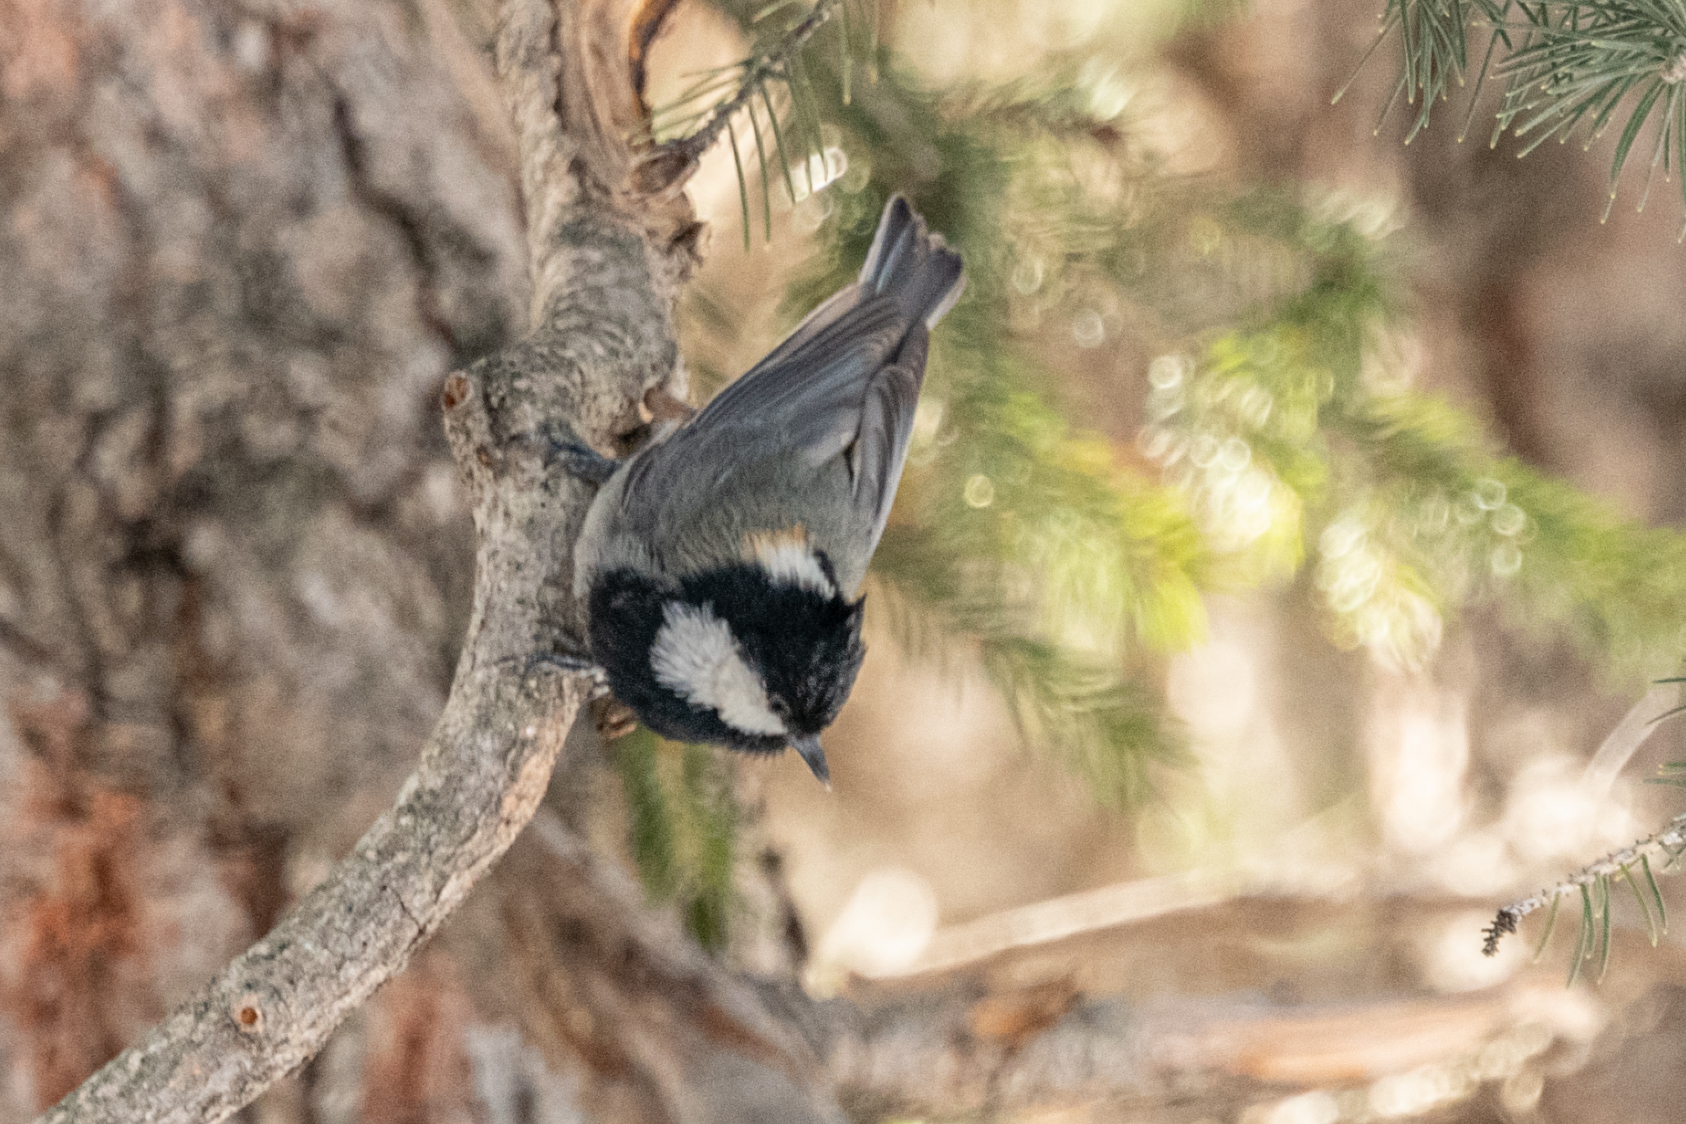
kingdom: Animalia
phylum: Chordata
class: Aves
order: Passeriformes
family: Paridae
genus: Periparus
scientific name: Periparus rufonuchalis
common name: Rufous-naped tit
